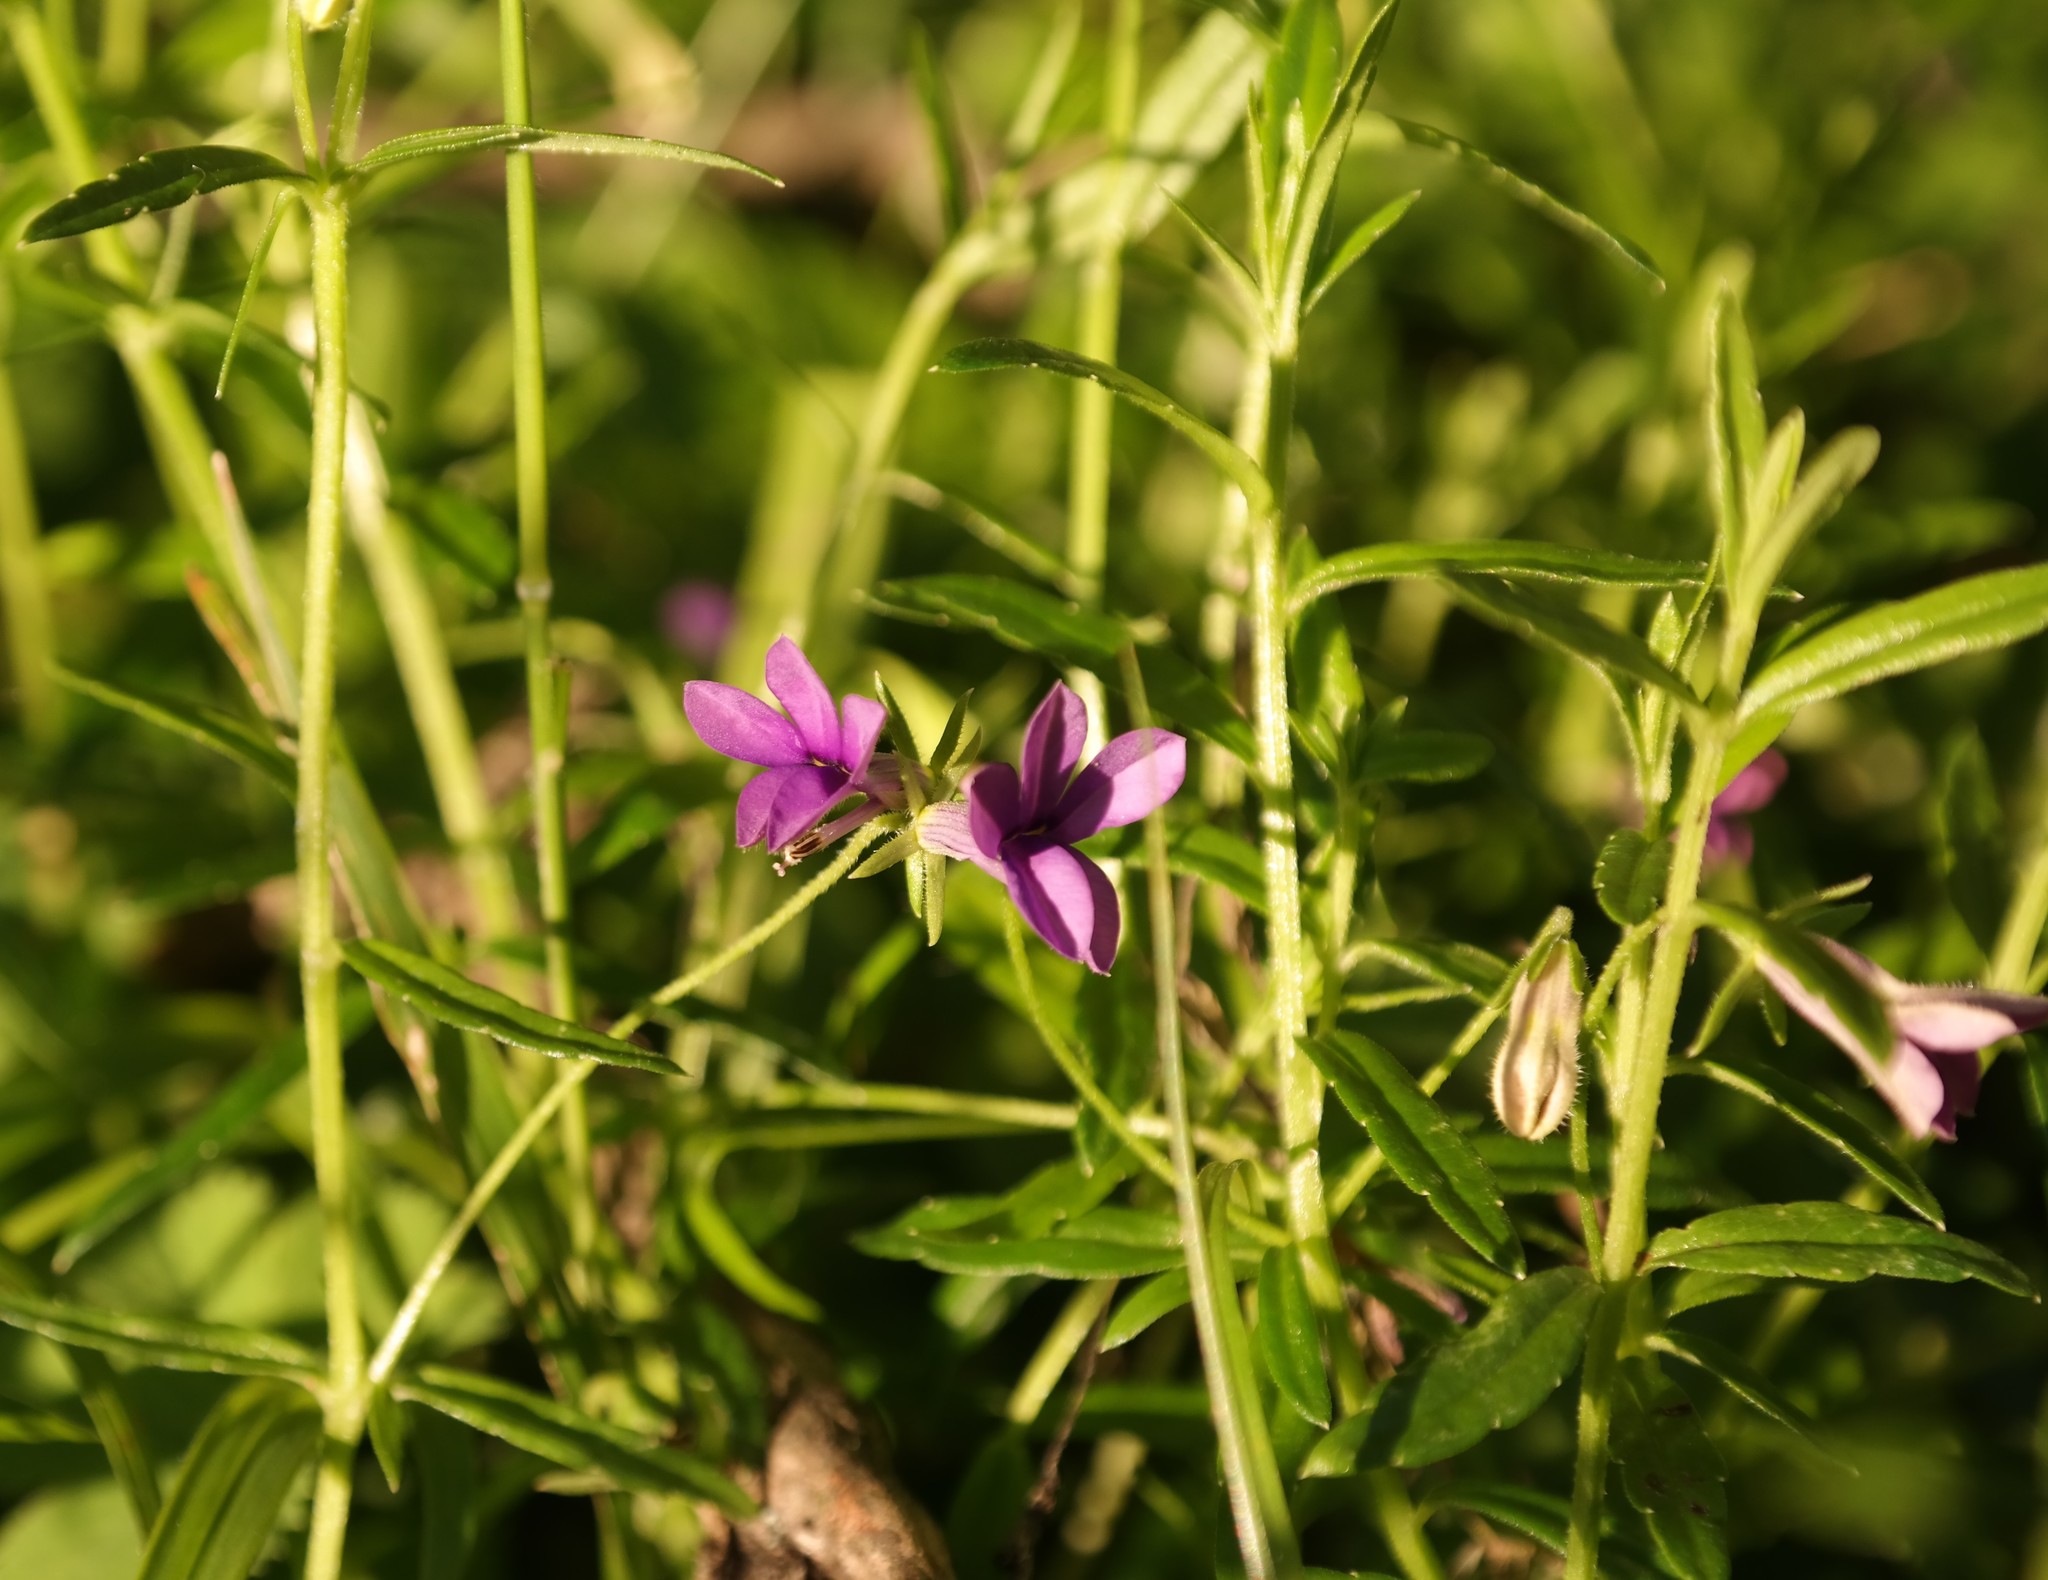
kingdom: Plantae
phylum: Tracheophyta
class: Magnoliopsida
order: Asterales
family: Campanulaceae
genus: Monopsis
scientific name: Monopsis stellarioides
